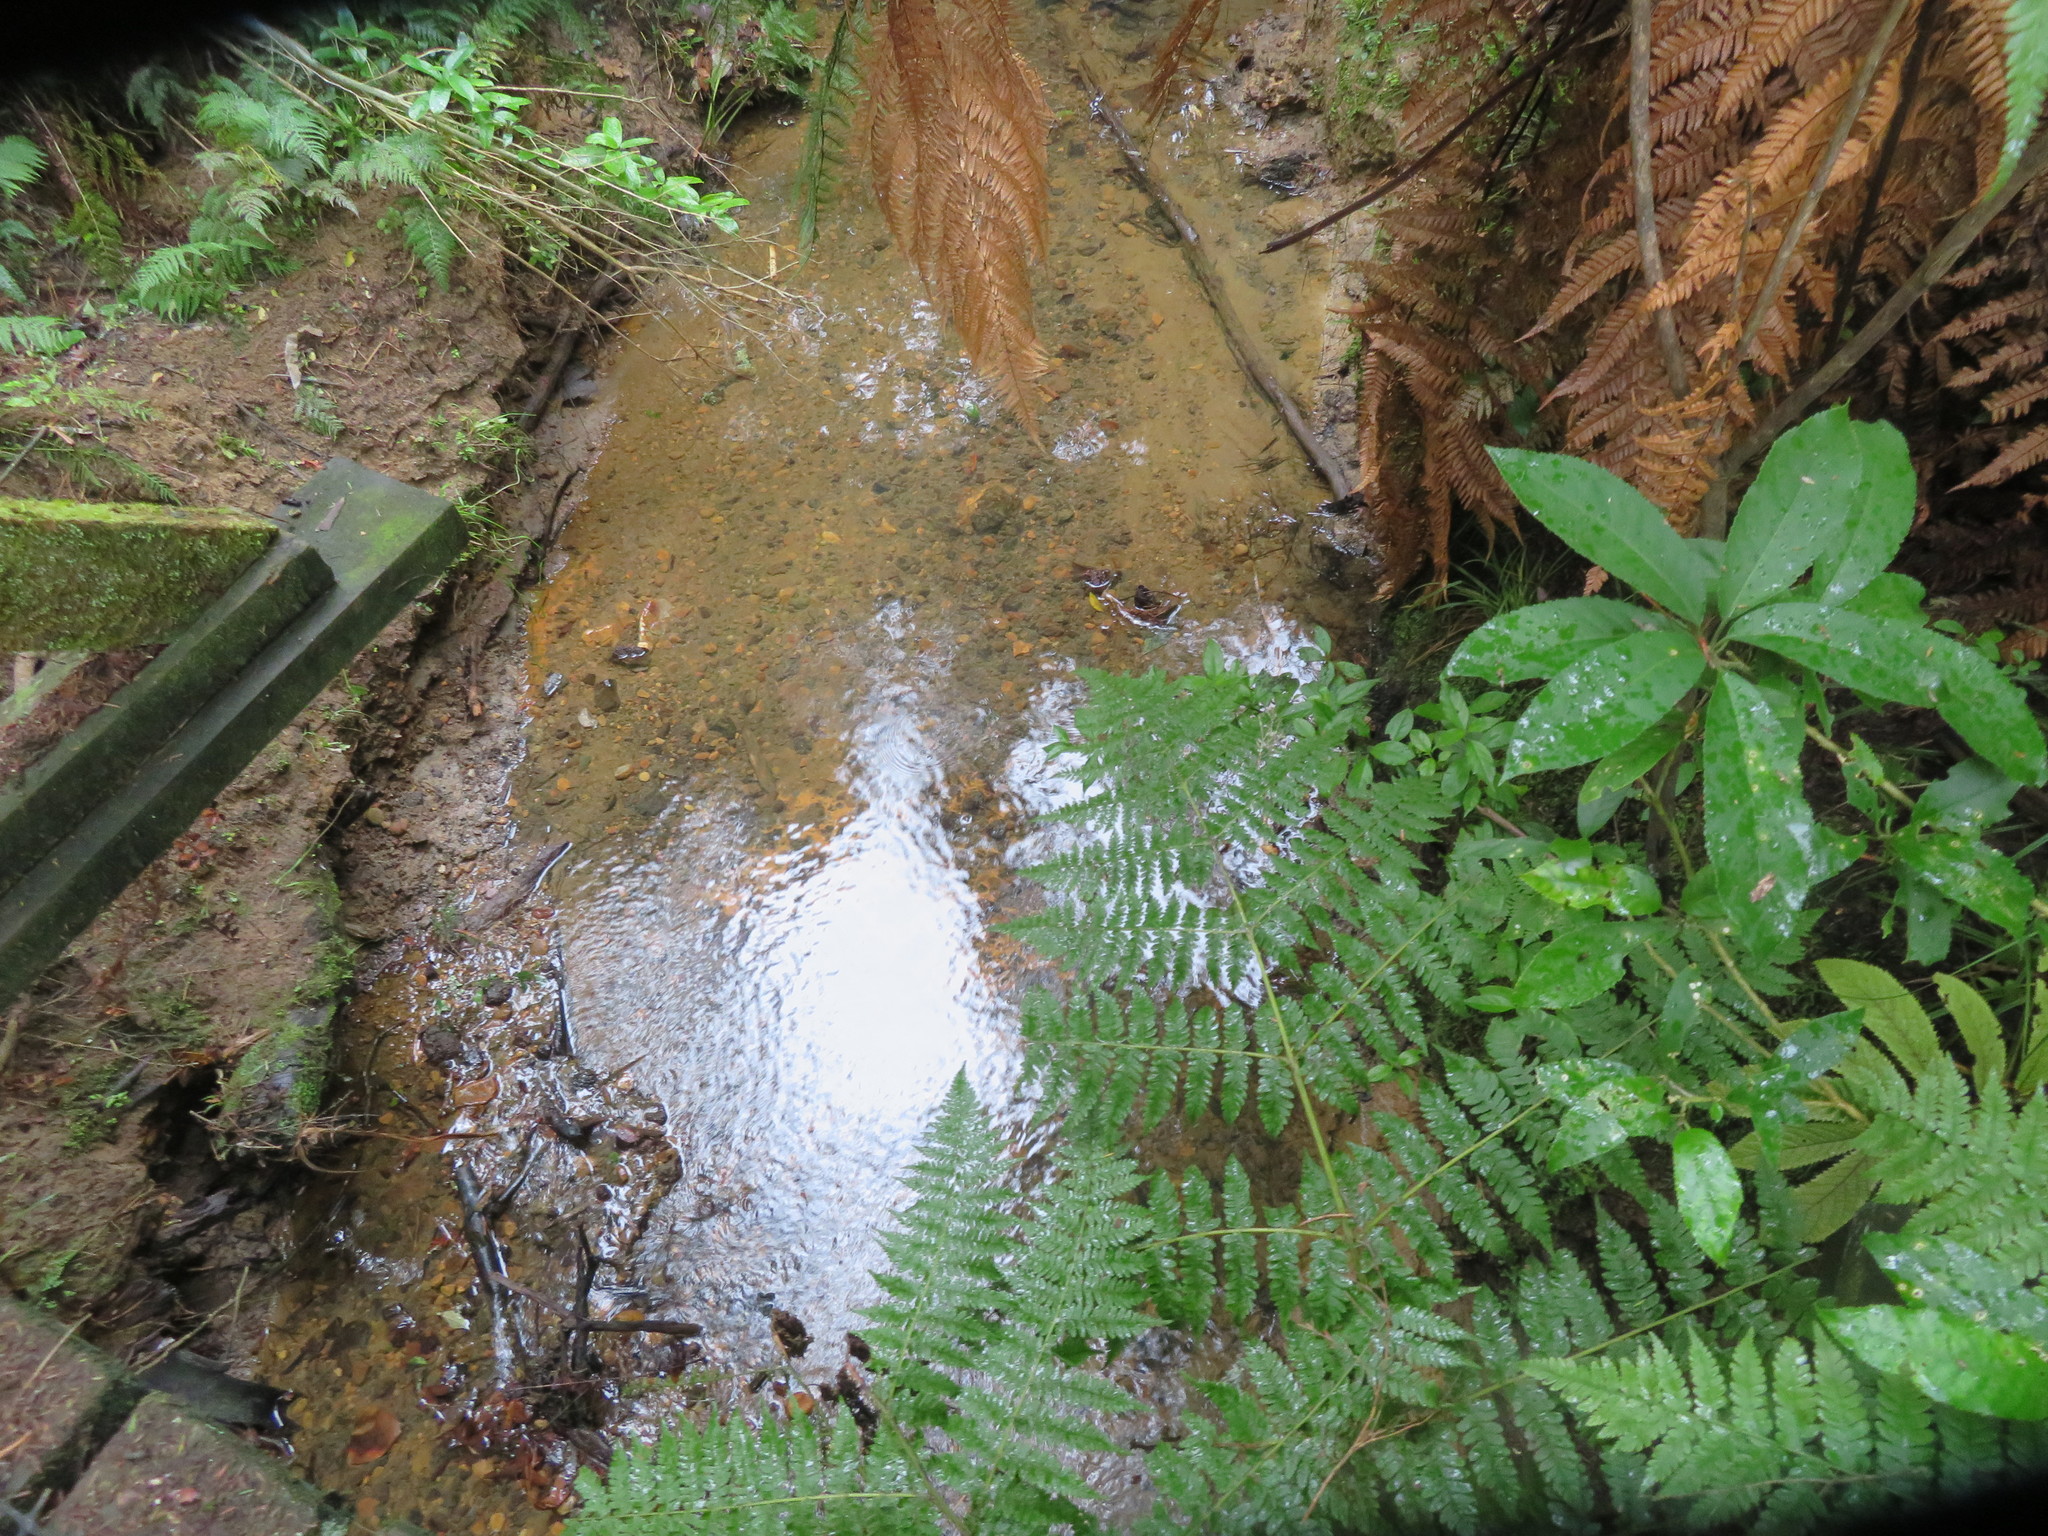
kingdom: Plantae
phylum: Tracheophyta
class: Magnoliopsida
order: Malpighiales
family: Violaceae
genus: Melicytus
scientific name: Melicytus ramiflorus
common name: Mahoe
